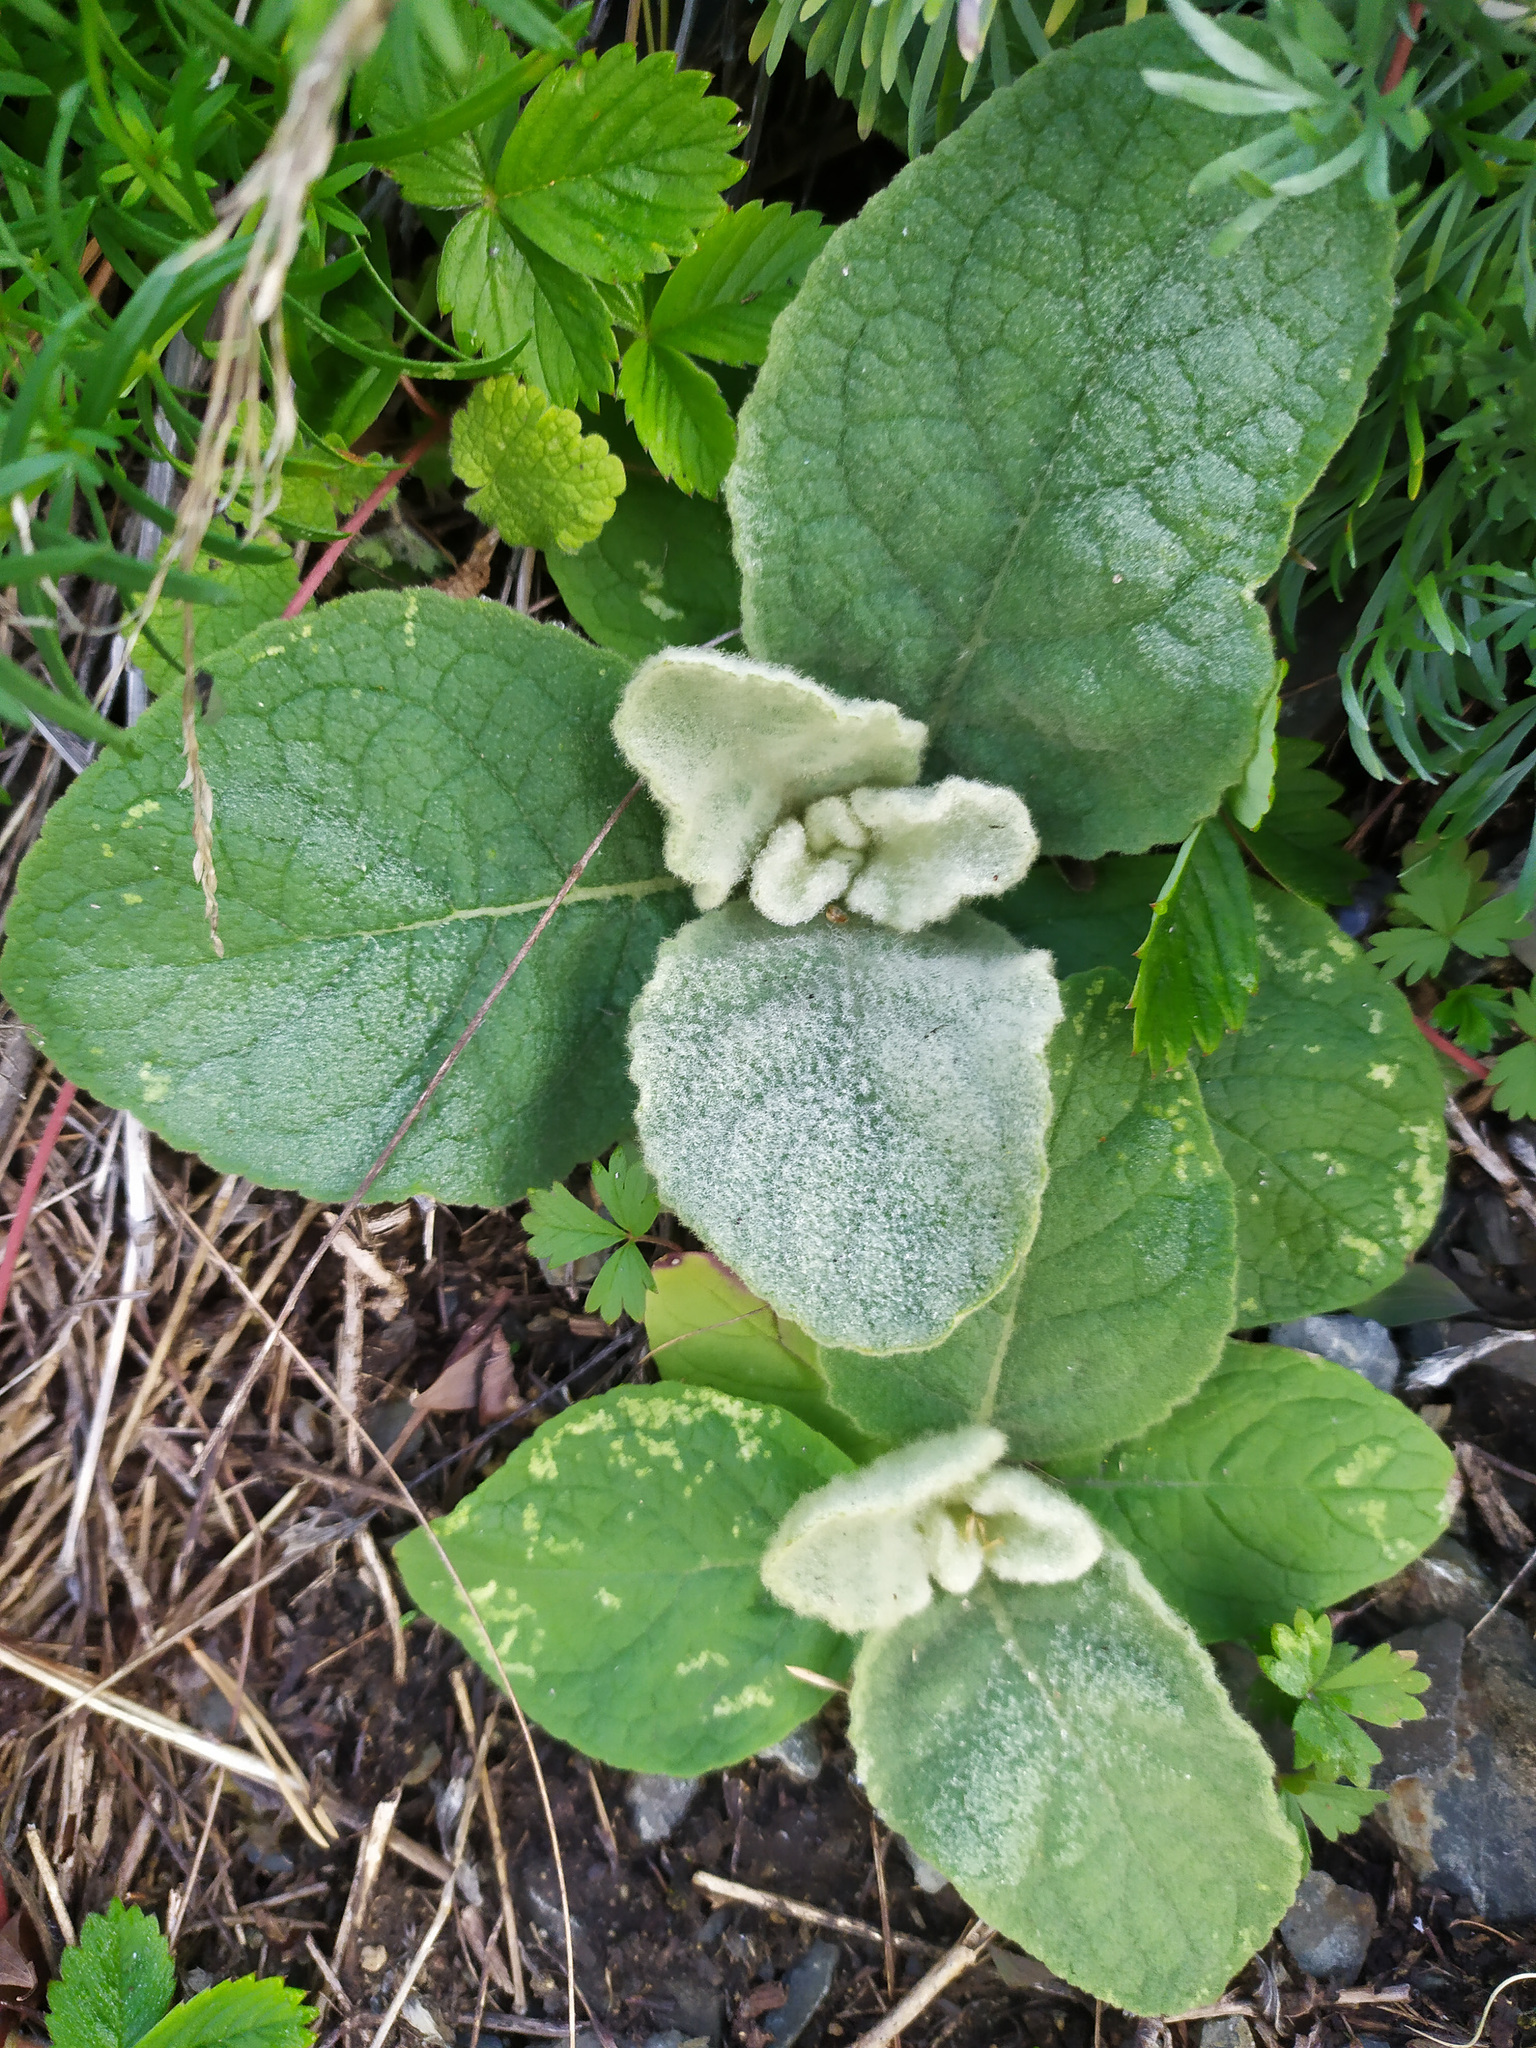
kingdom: Plantae
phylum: Tracheophyta
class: Magnoliopsida
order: Lamiales
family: Scrophulariaceae
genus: Verbascum
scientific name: Verbascum thapsus
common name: Common mullein
